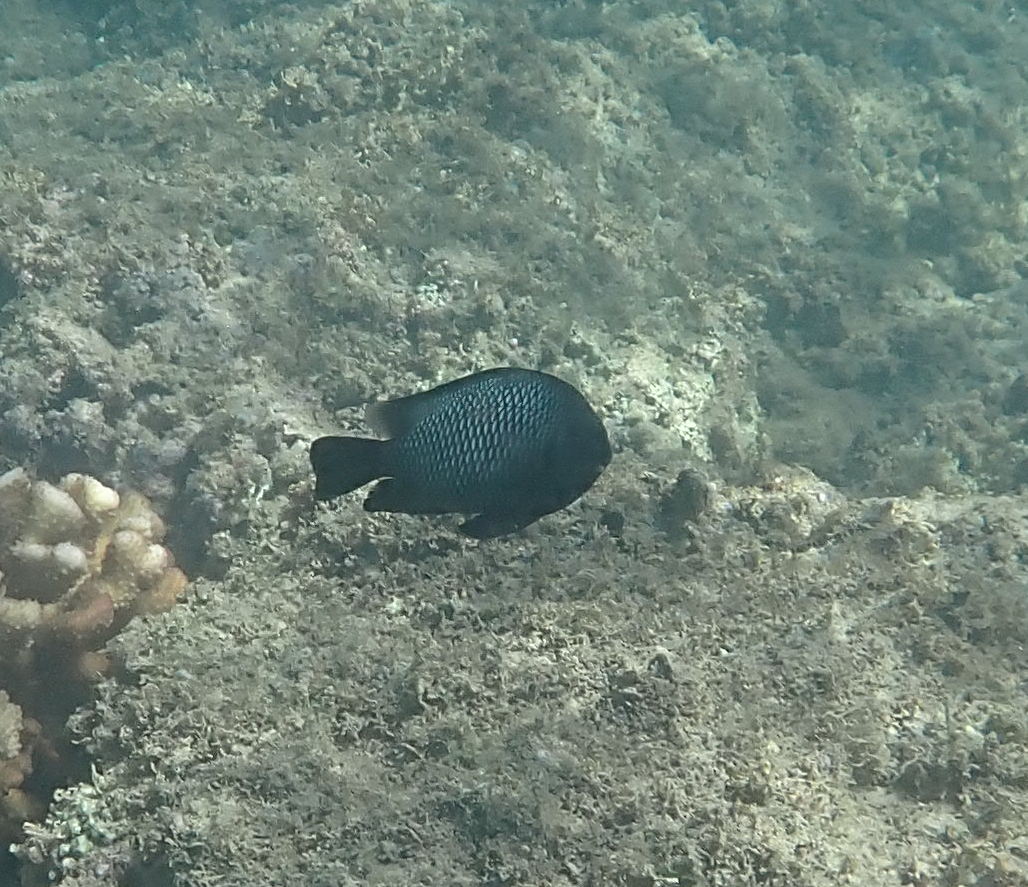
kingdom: Animalia
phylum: Chordata
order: Perciformes
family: Pomacentridae
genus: Dascyllus
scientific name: Dascyllus albisella
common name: Hawaiian dascyllus
